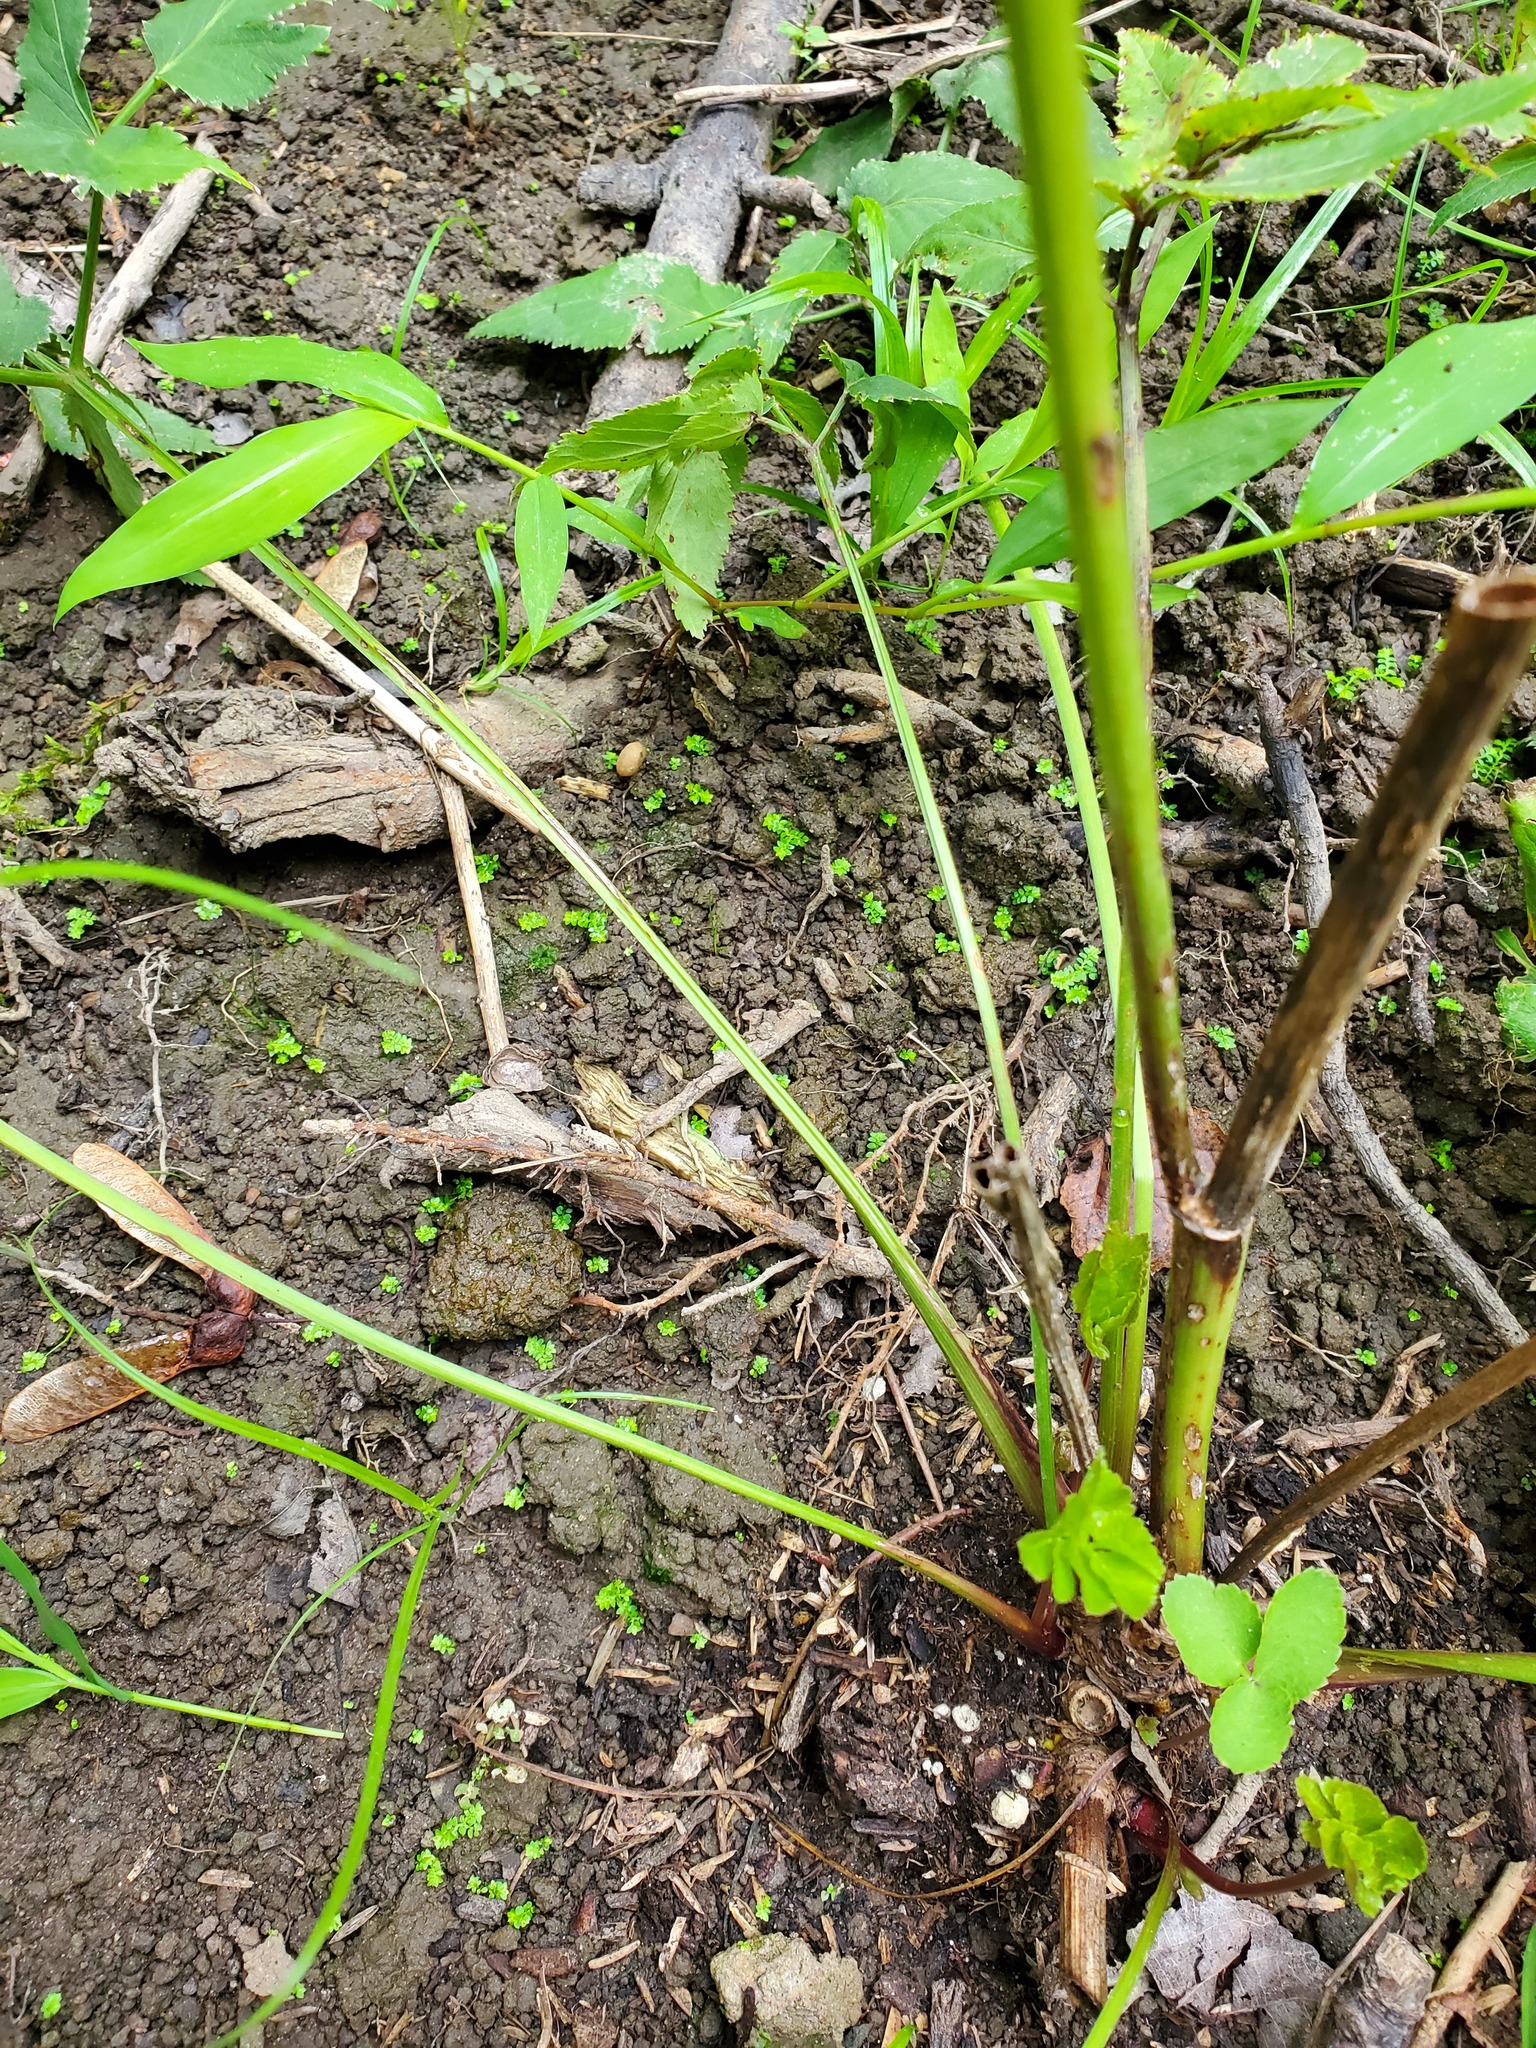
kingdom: Plantae
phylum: Tracheophyta
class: Lycopodiopsida
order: Selaginellales
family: Selaginellaceae
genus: Selaginella
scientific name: Selaginella apoda
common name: Creeping spikemoss
